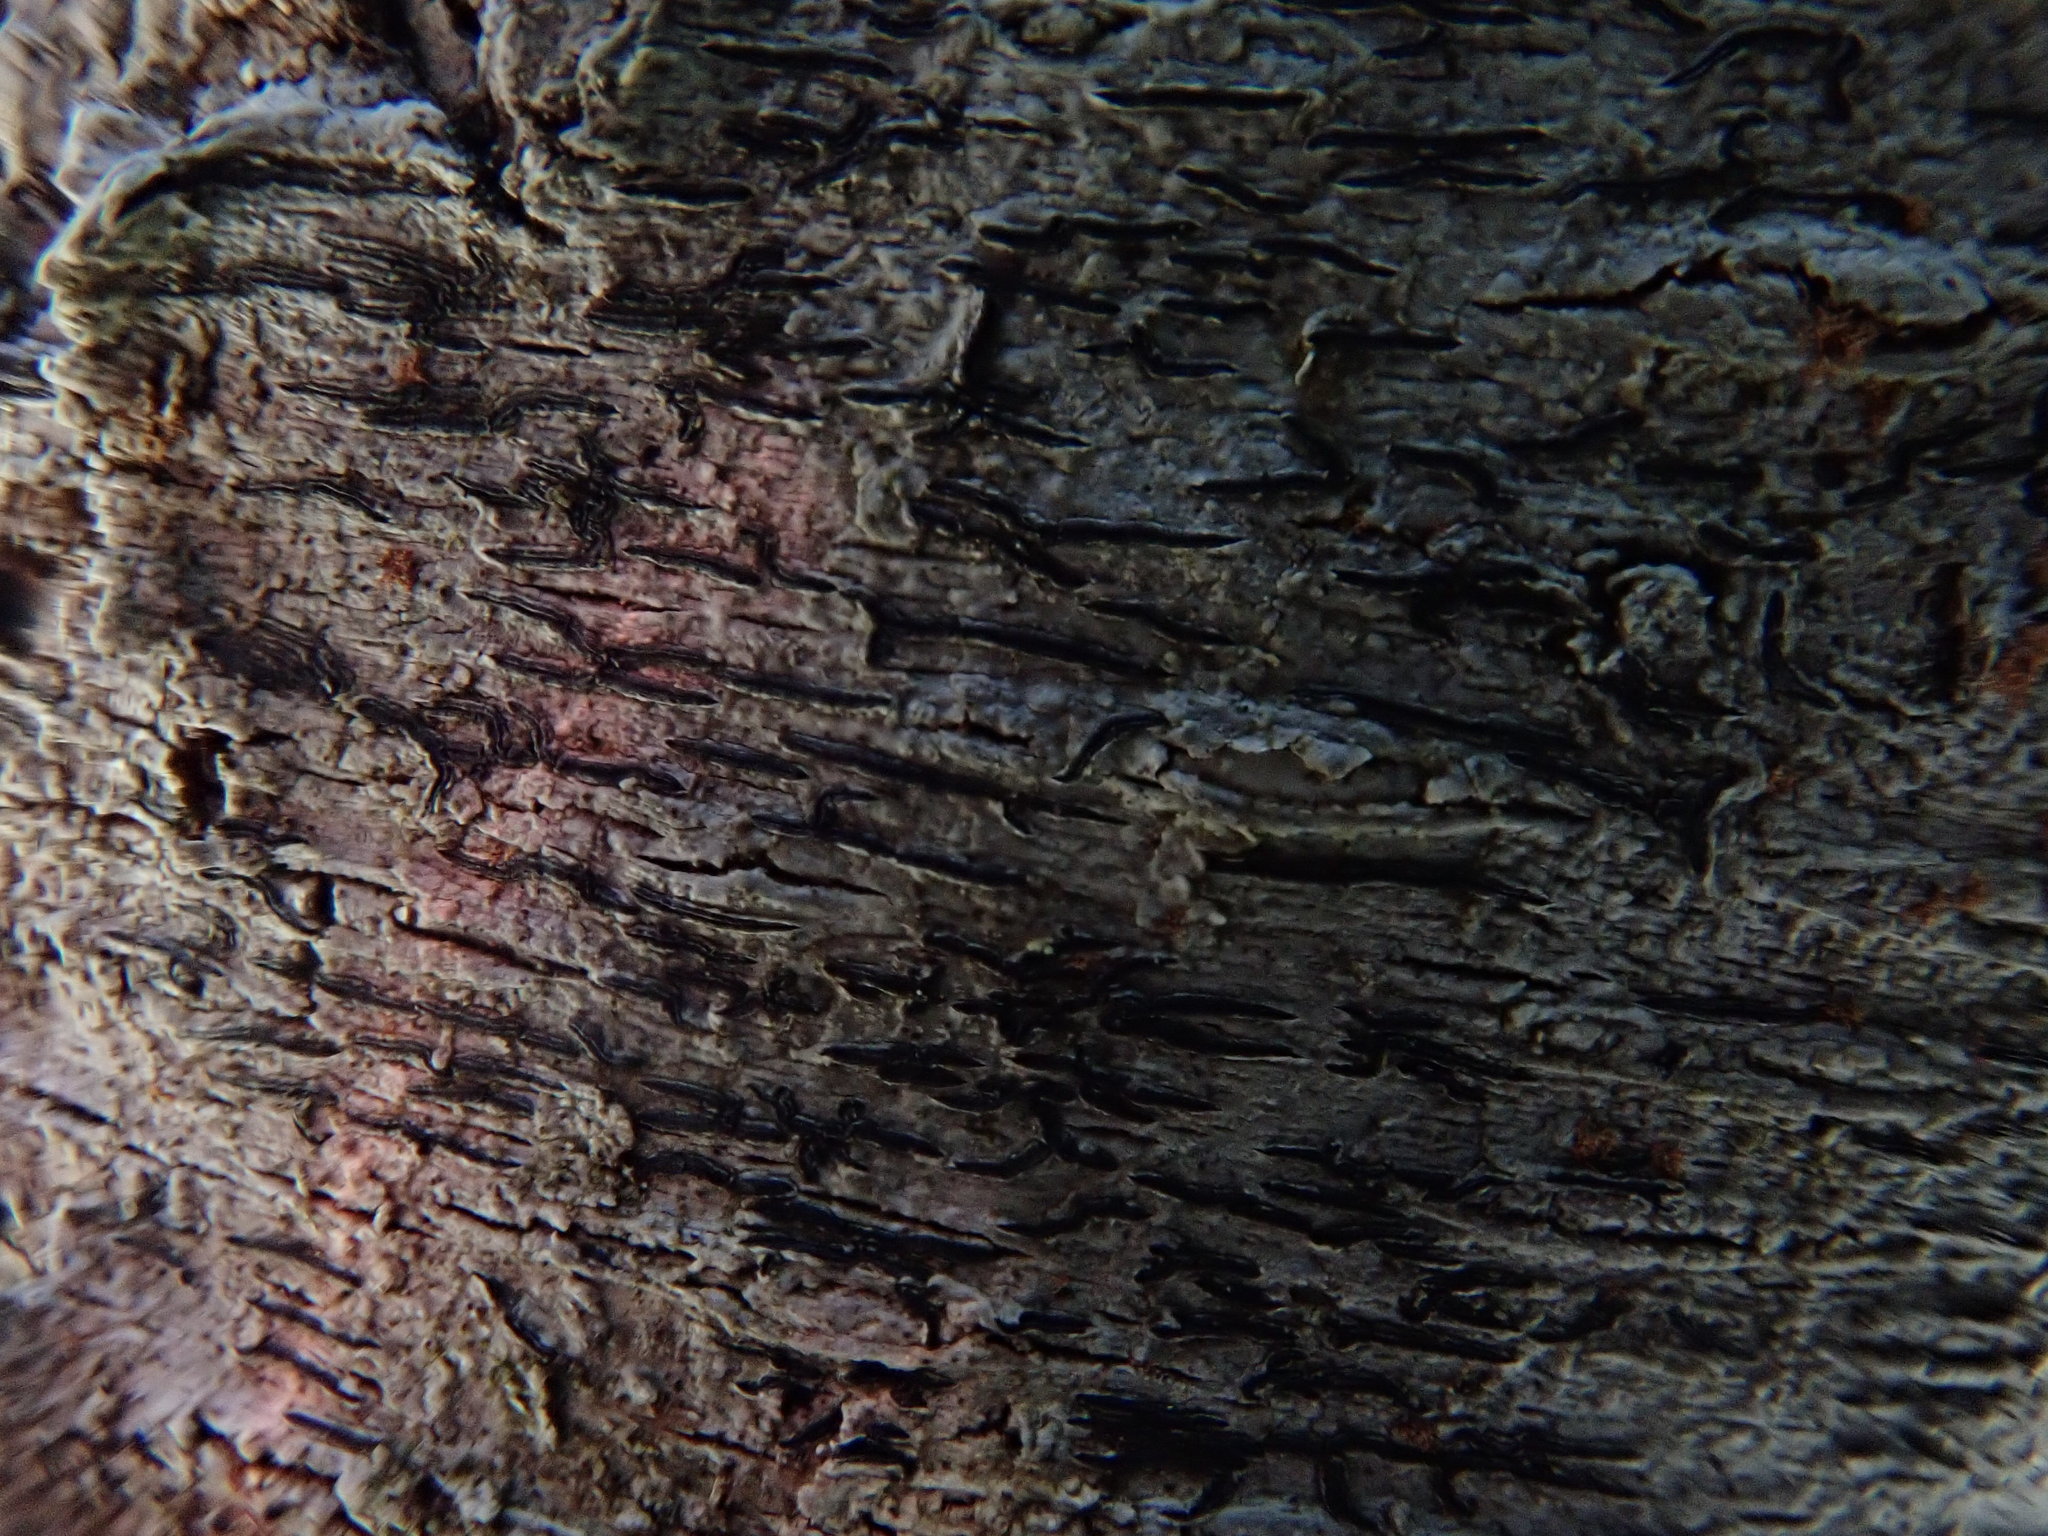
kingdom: Fungi
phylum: Ascomycota
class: Lecanoromycetes
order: Ostropales
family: Graphidaceae
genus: Graphis
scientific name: Graphis scripta
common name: Script lichen
